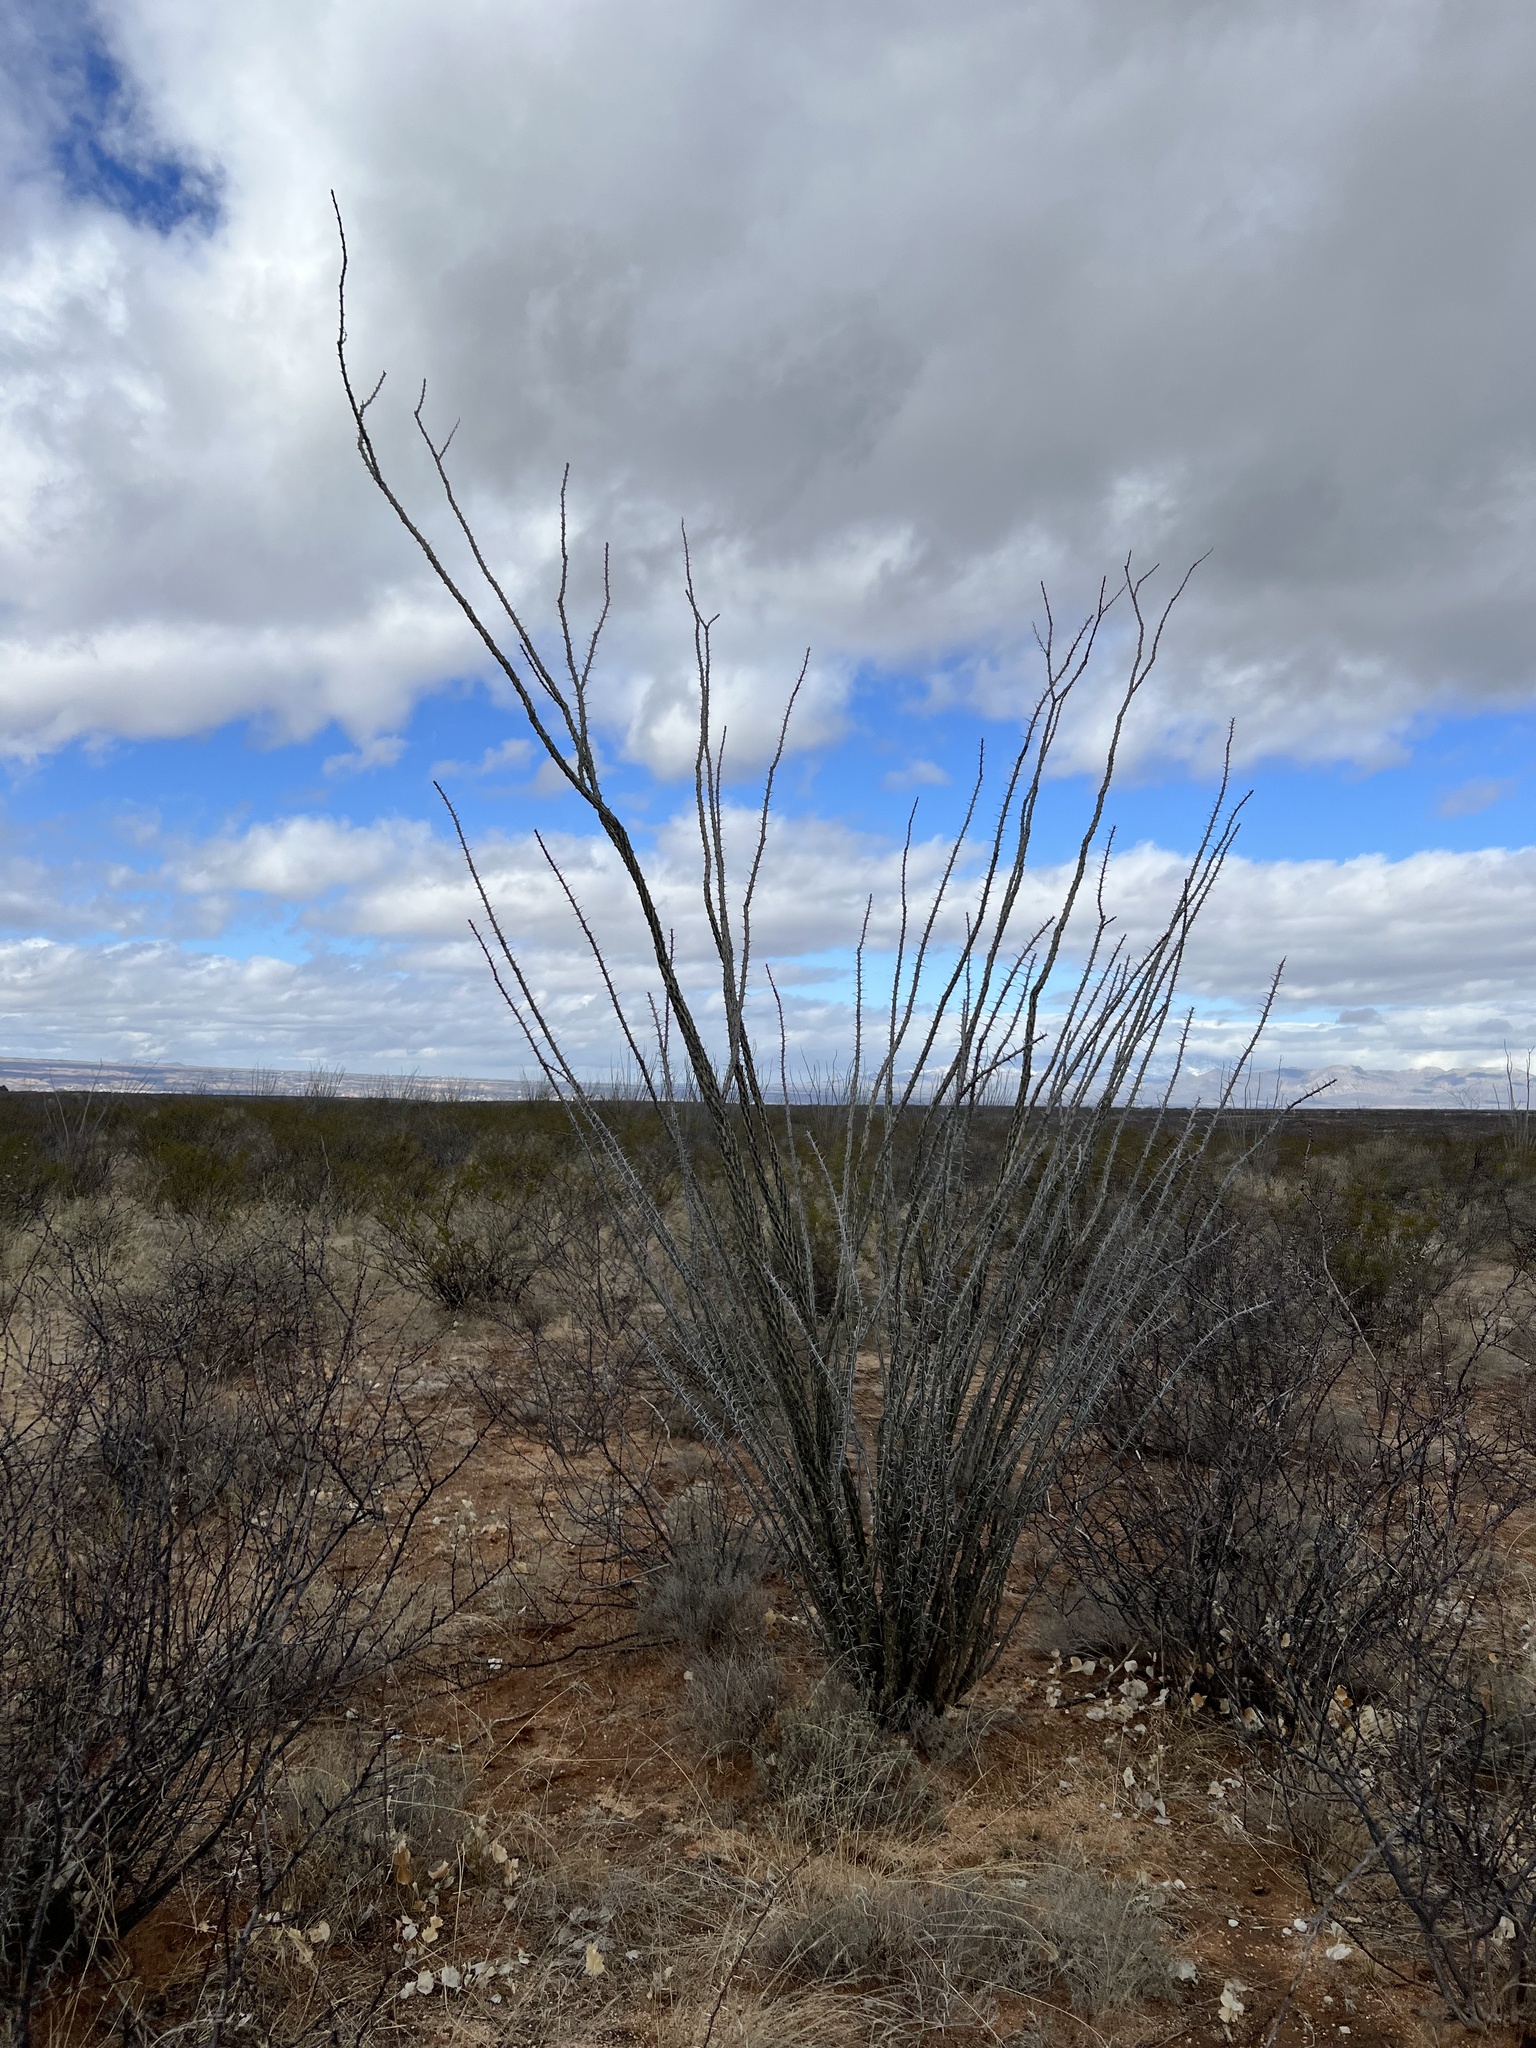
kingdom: Plantae
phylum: Tracheophyta
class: Magnoliopsida
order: Ericales
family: Fouquieriaceae
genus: Fouquieria
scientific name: Fouquieria splendens
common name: Vine-cactus
